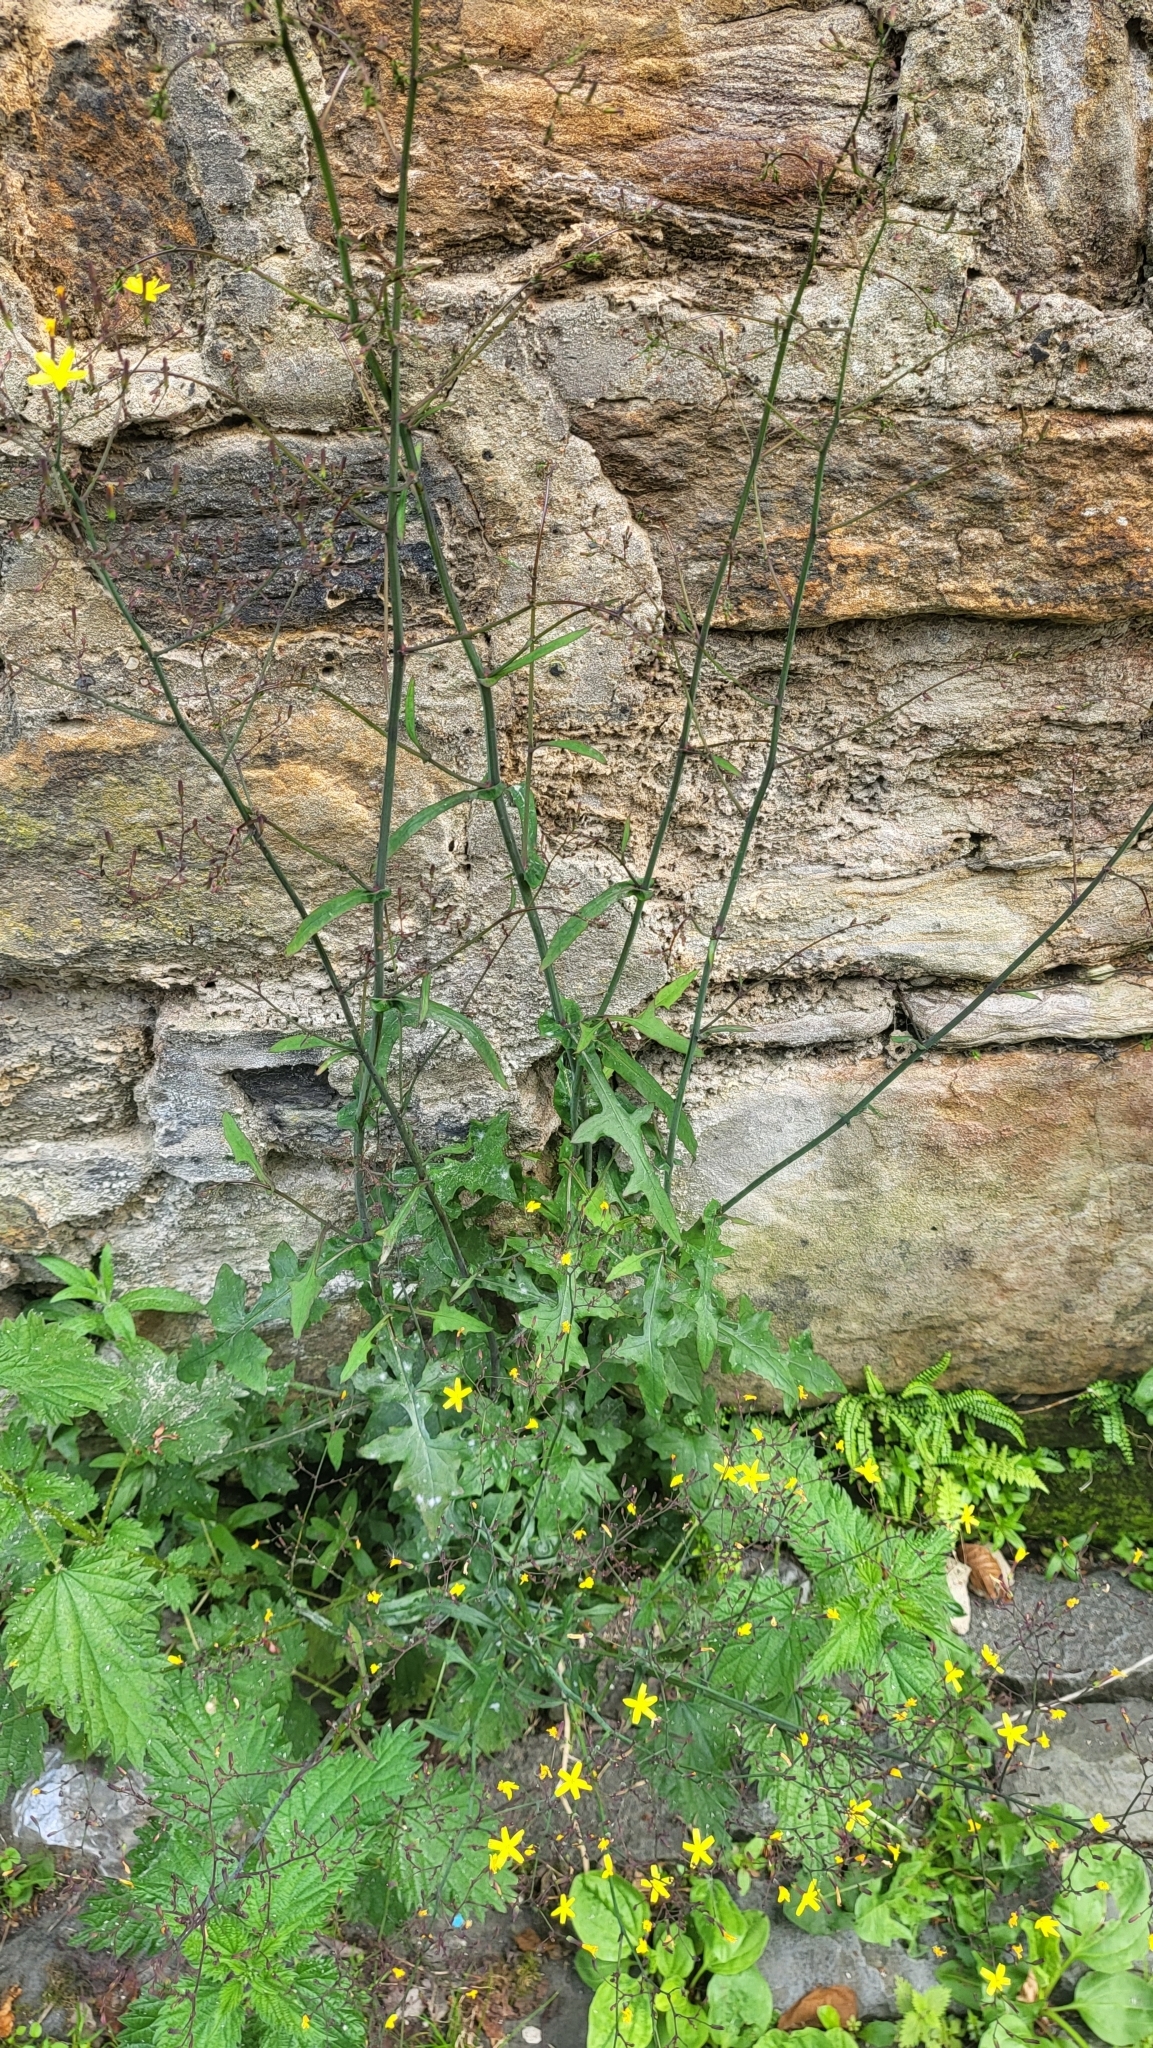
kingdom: Plantae
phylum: Tracheophyta
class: Magnoliopsida
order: Asterales
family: Asteraceae
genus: Mycelis
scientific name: Mycelis muralis
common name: Wall lettuce
